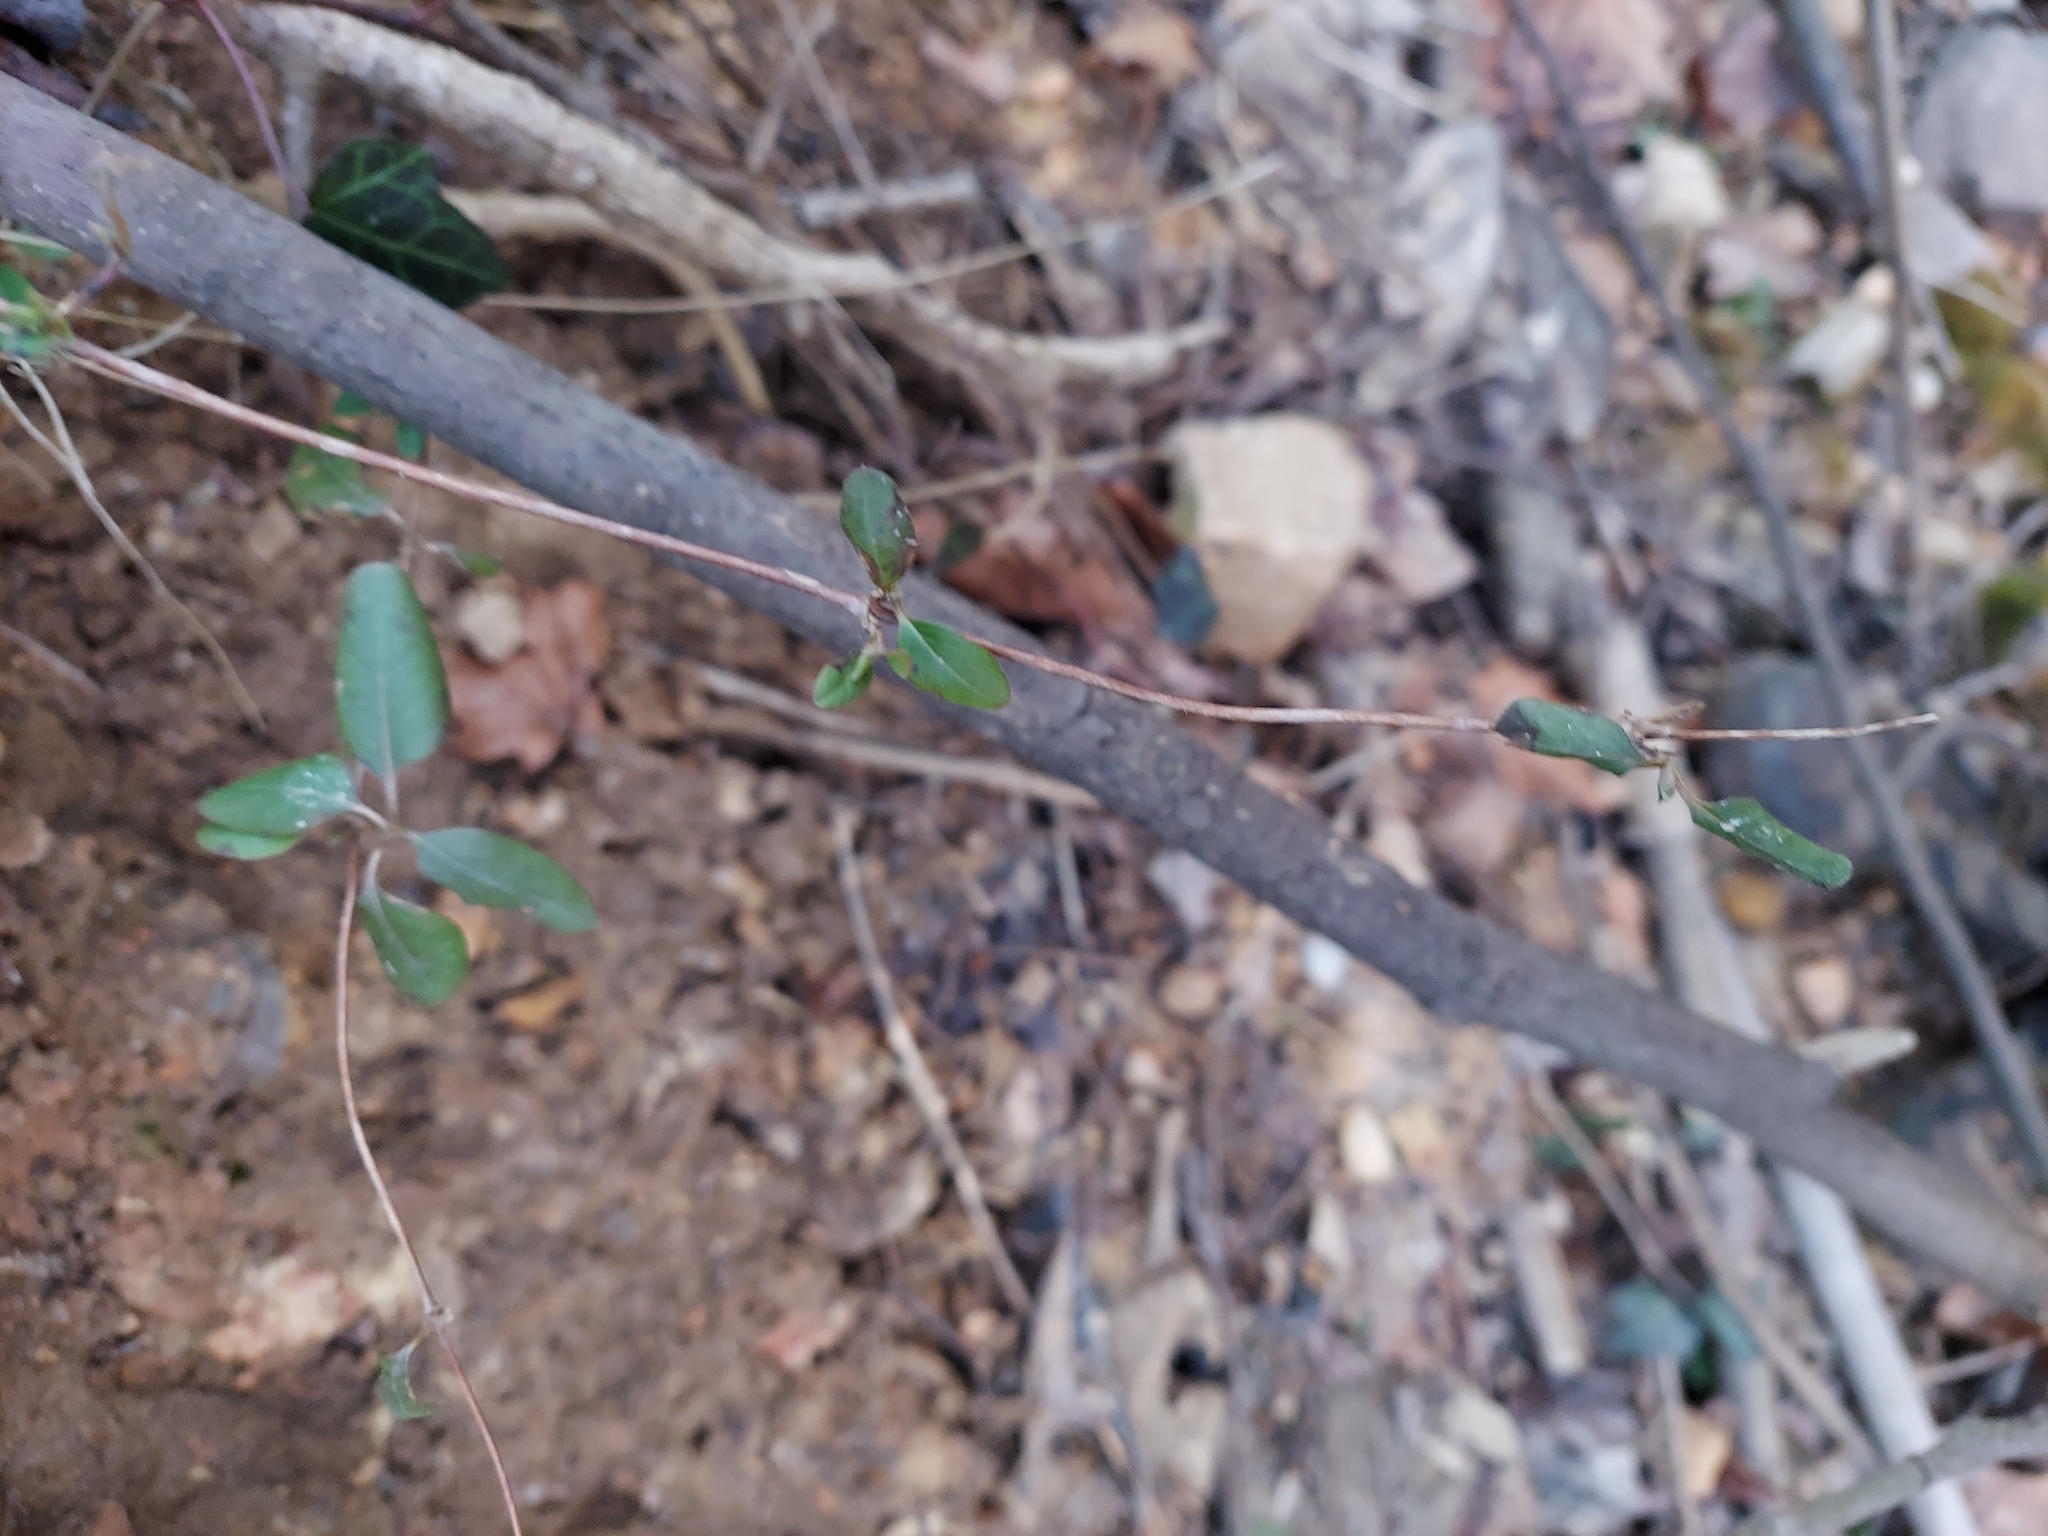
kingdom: Plantae
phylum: Tracheophyta
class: Magnoliopsida
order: Dipsacales
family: Caprifoliaceae
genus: Lonicera
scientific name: Lonicera japonica
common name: Japanese honeysuckle
